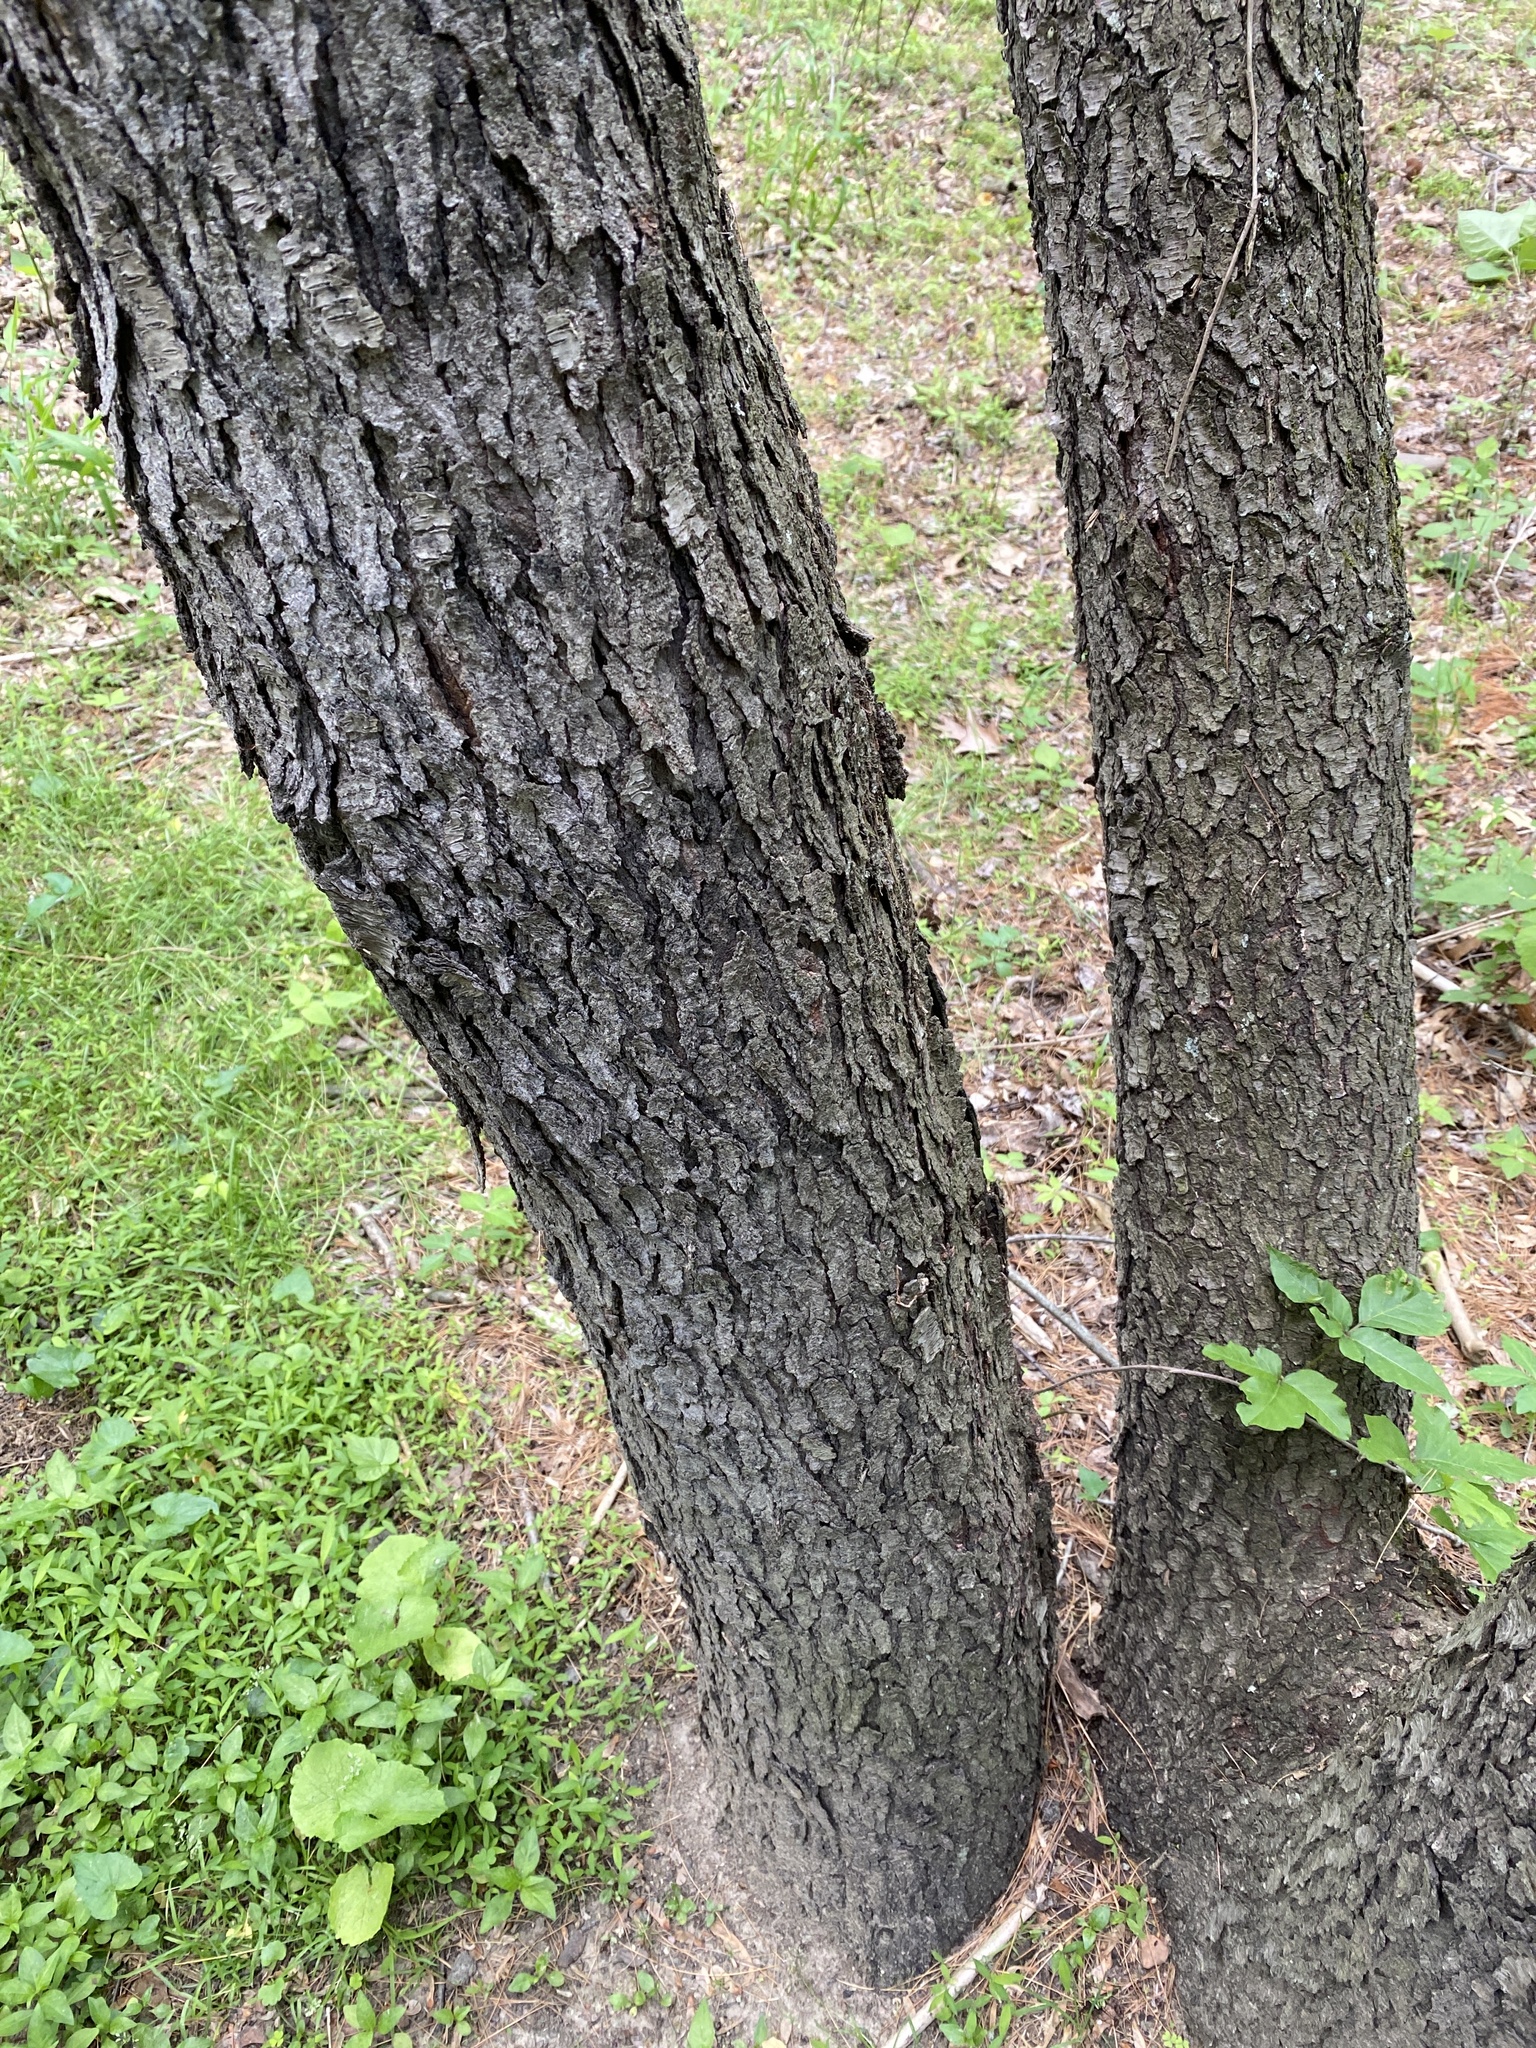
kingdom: Plantae
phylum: Tracheophyta
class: Magnoliopsida
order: Rosales
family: Rosaceae
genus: Prunus
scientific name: Prunus serotina
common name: Black cherry
